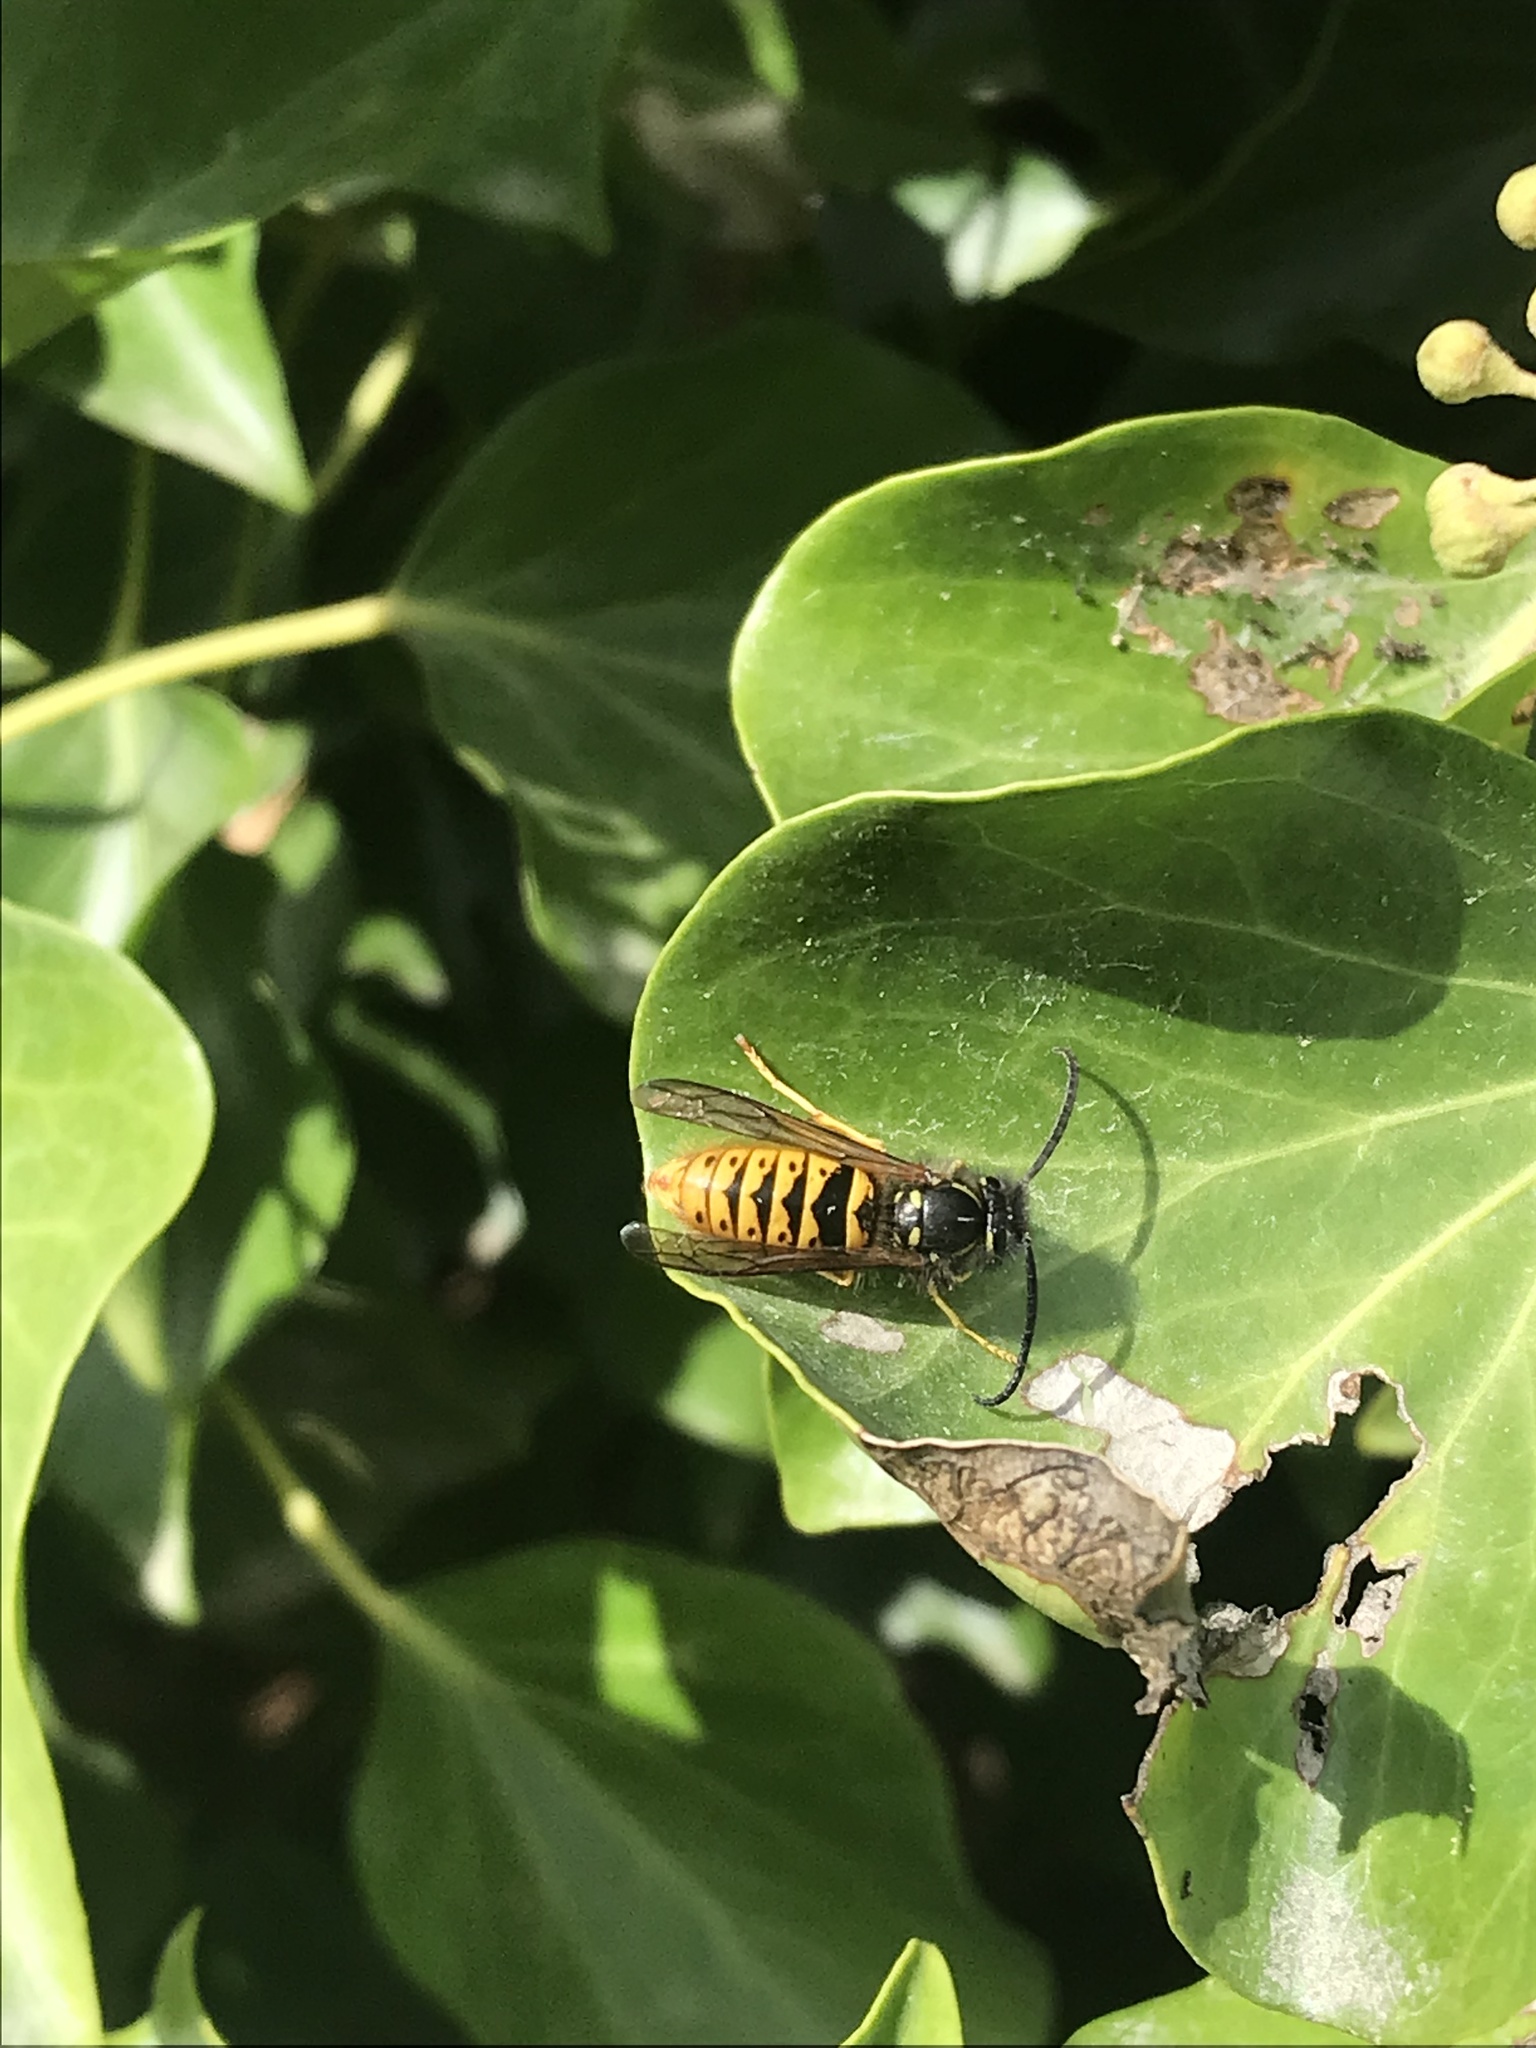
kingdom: Animalia
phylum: Arthropoda
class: Insecta
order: Hymenoptera
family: Vespidae
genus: Vespula
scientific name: Vespula vulgaris
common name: Common wasp
